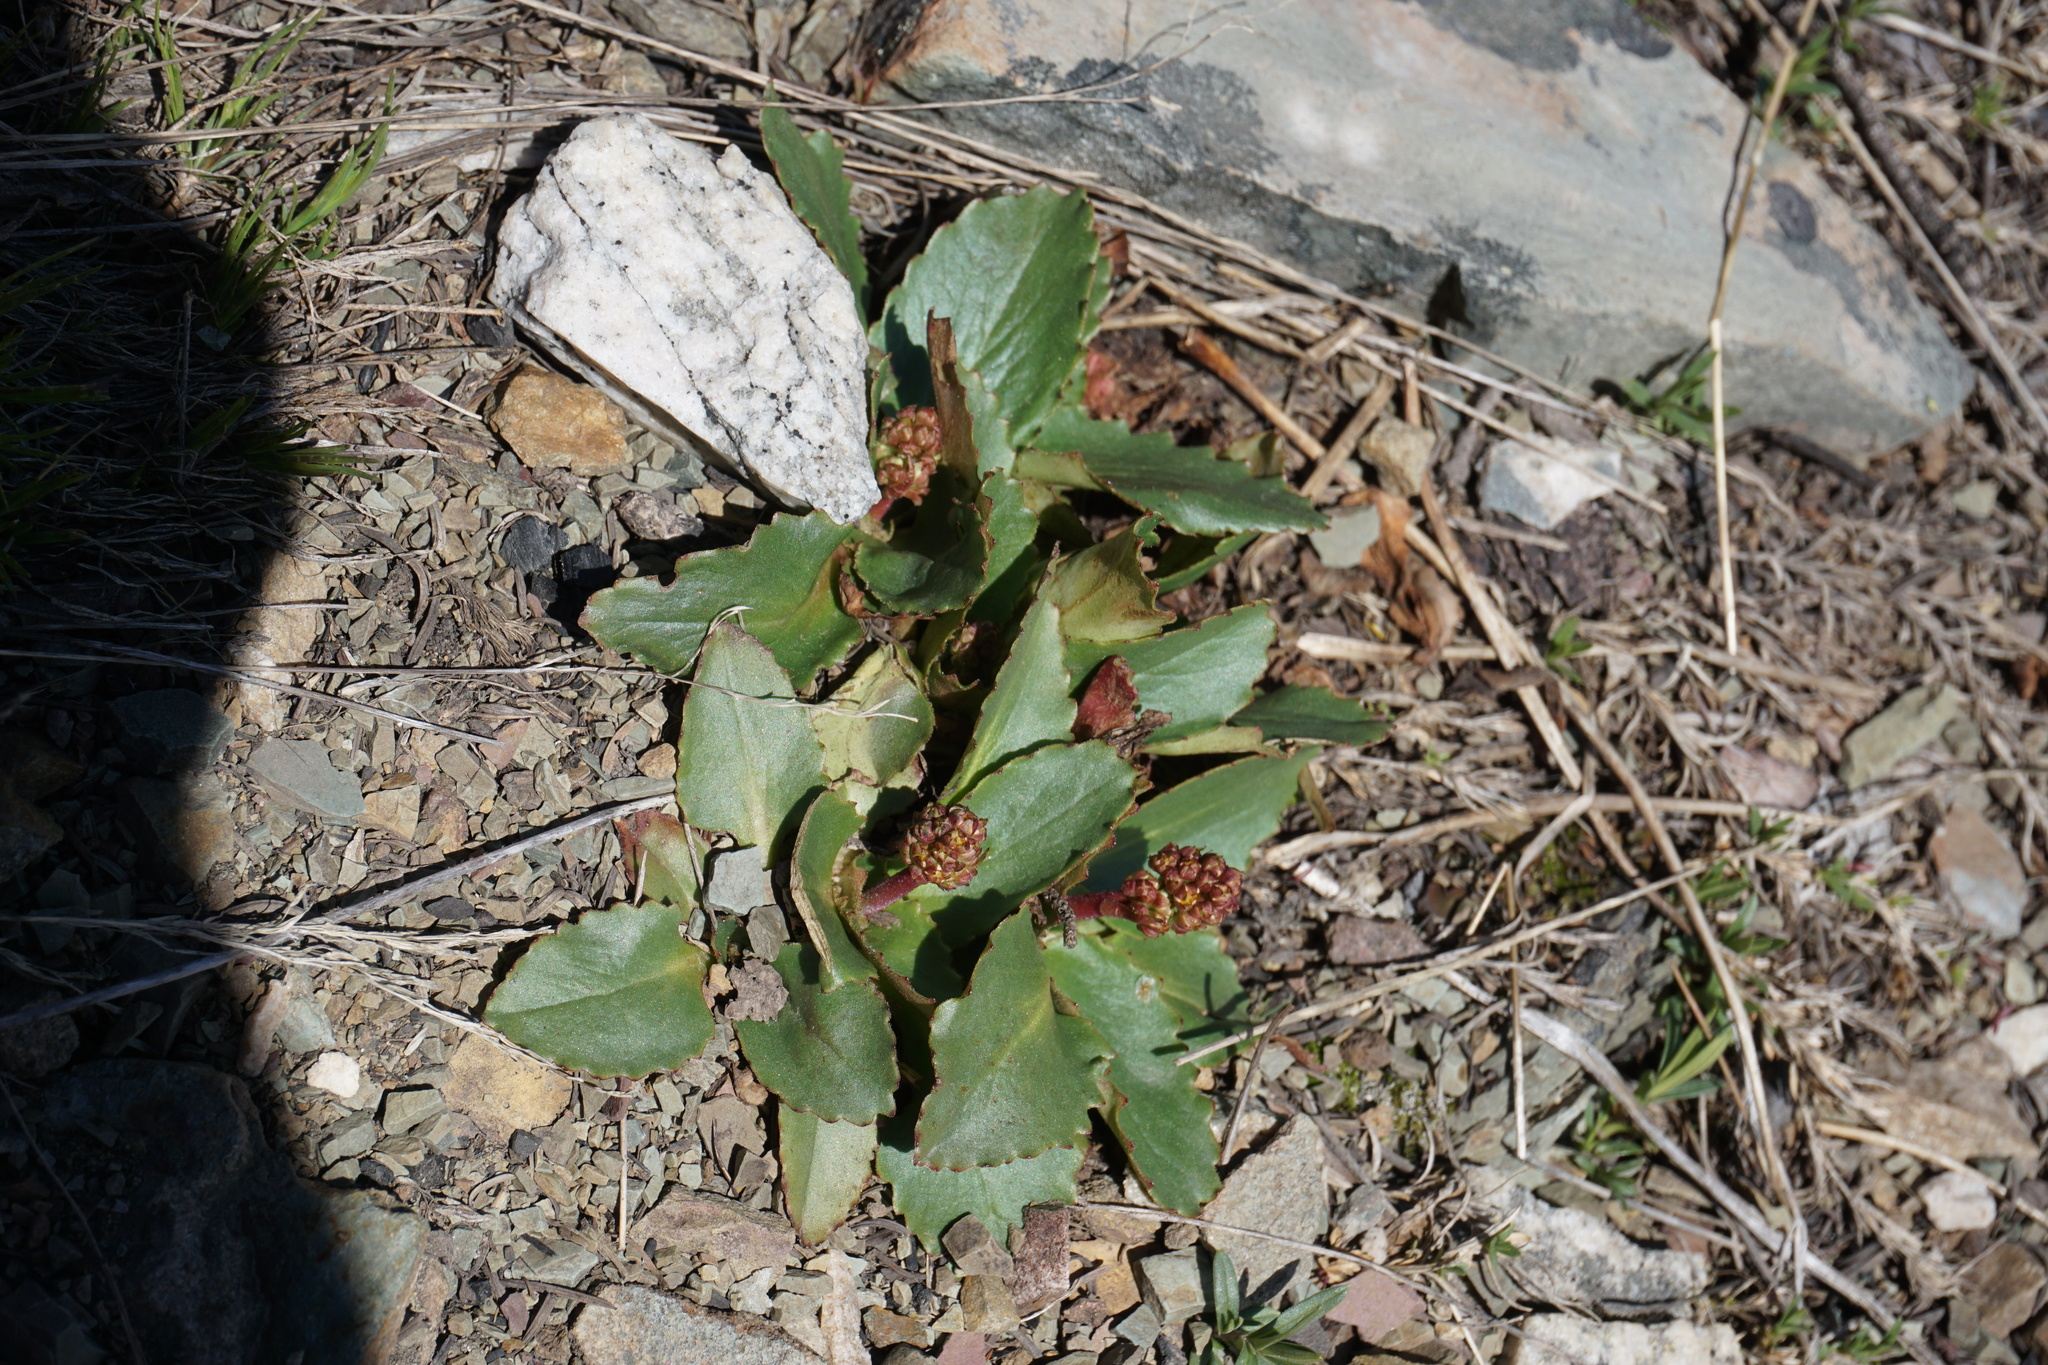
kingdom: Plantae
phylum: Tracheophyta
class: Magnoliopsida
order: Saxifragales
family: Saxifragaceae
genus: Micranthes
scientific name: Micranthes occidentalis
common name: Alberta saxifrage
